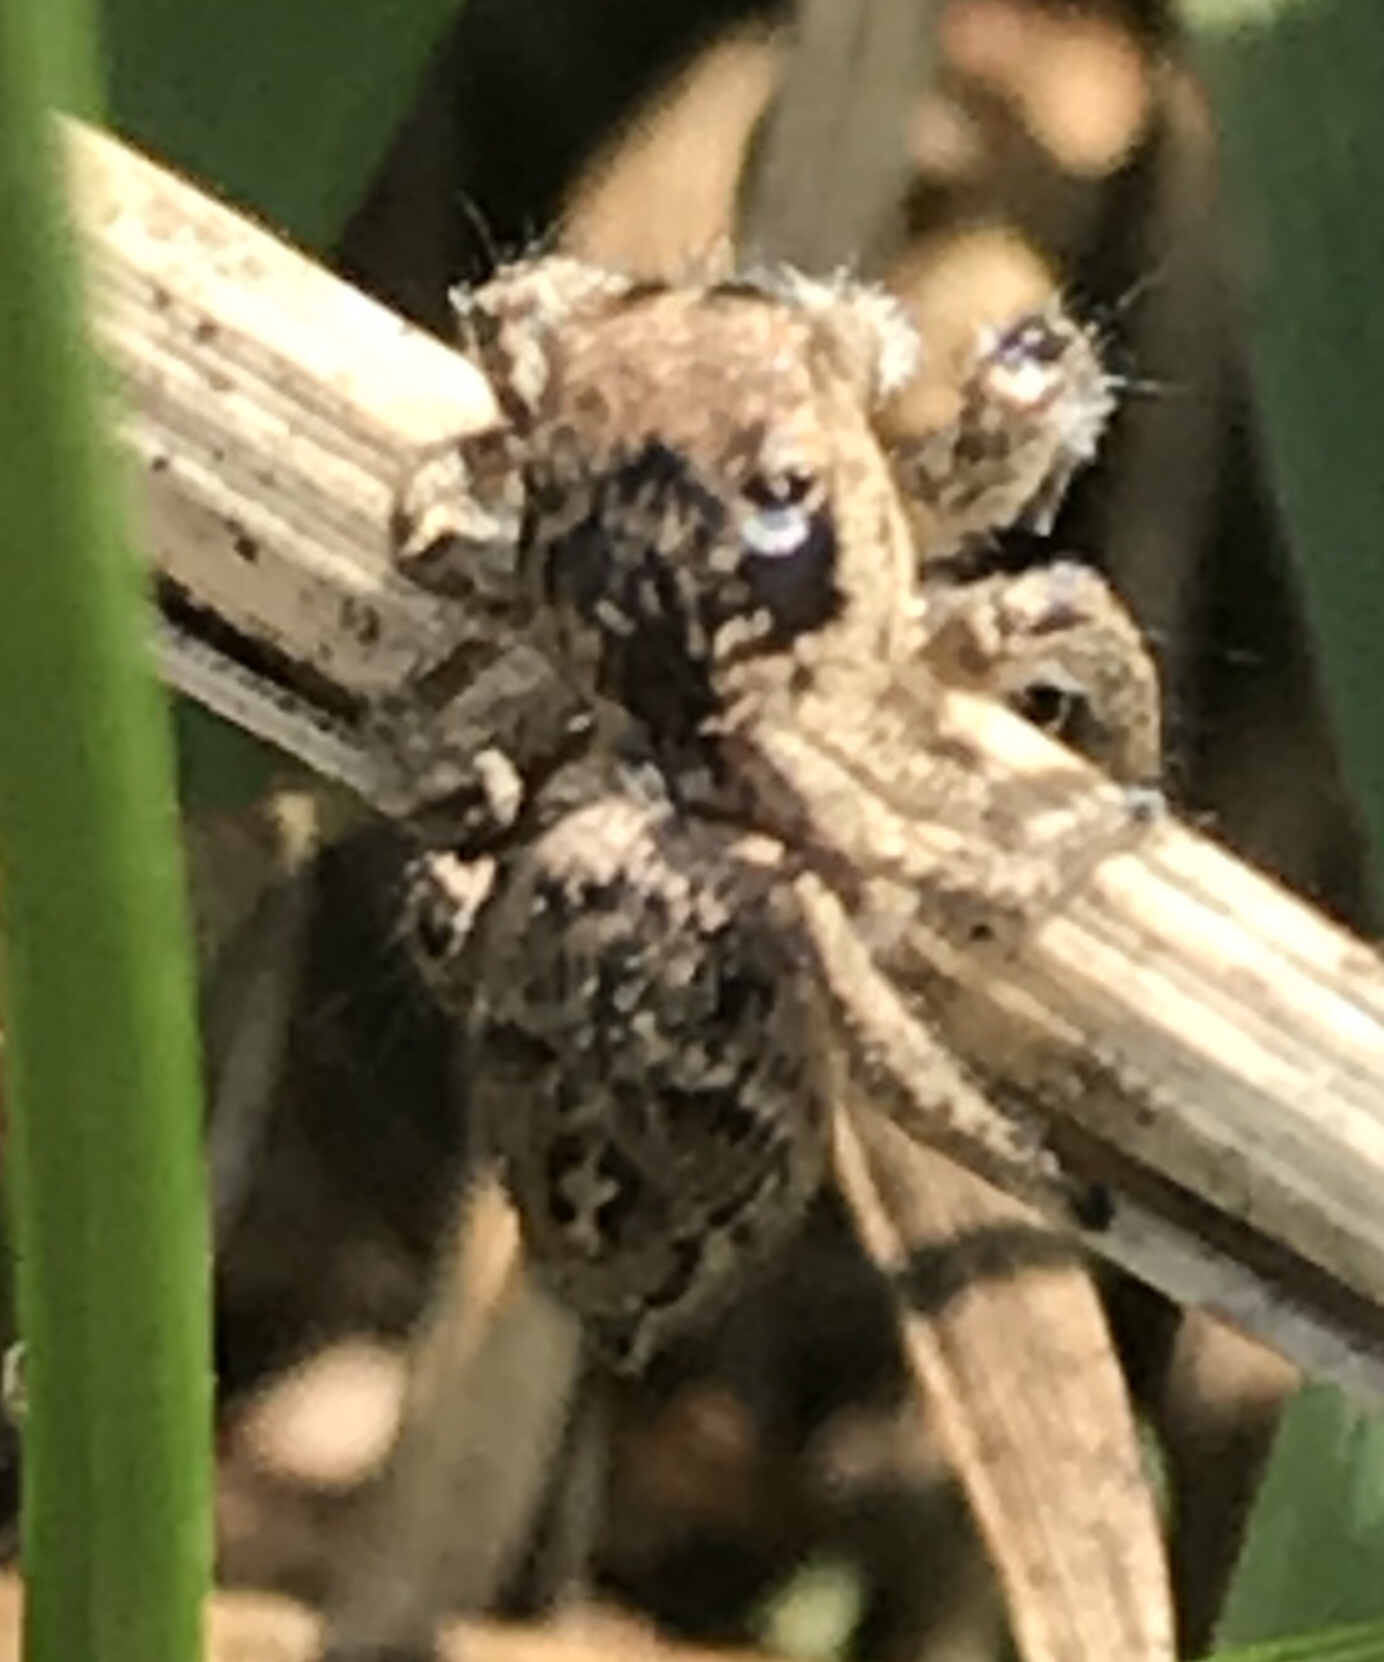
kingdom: Animalia
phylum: Arthropoda
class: Arachnida
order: Araneae
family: Salticidae
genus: Habronattus
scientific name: Habronattus coecatus
